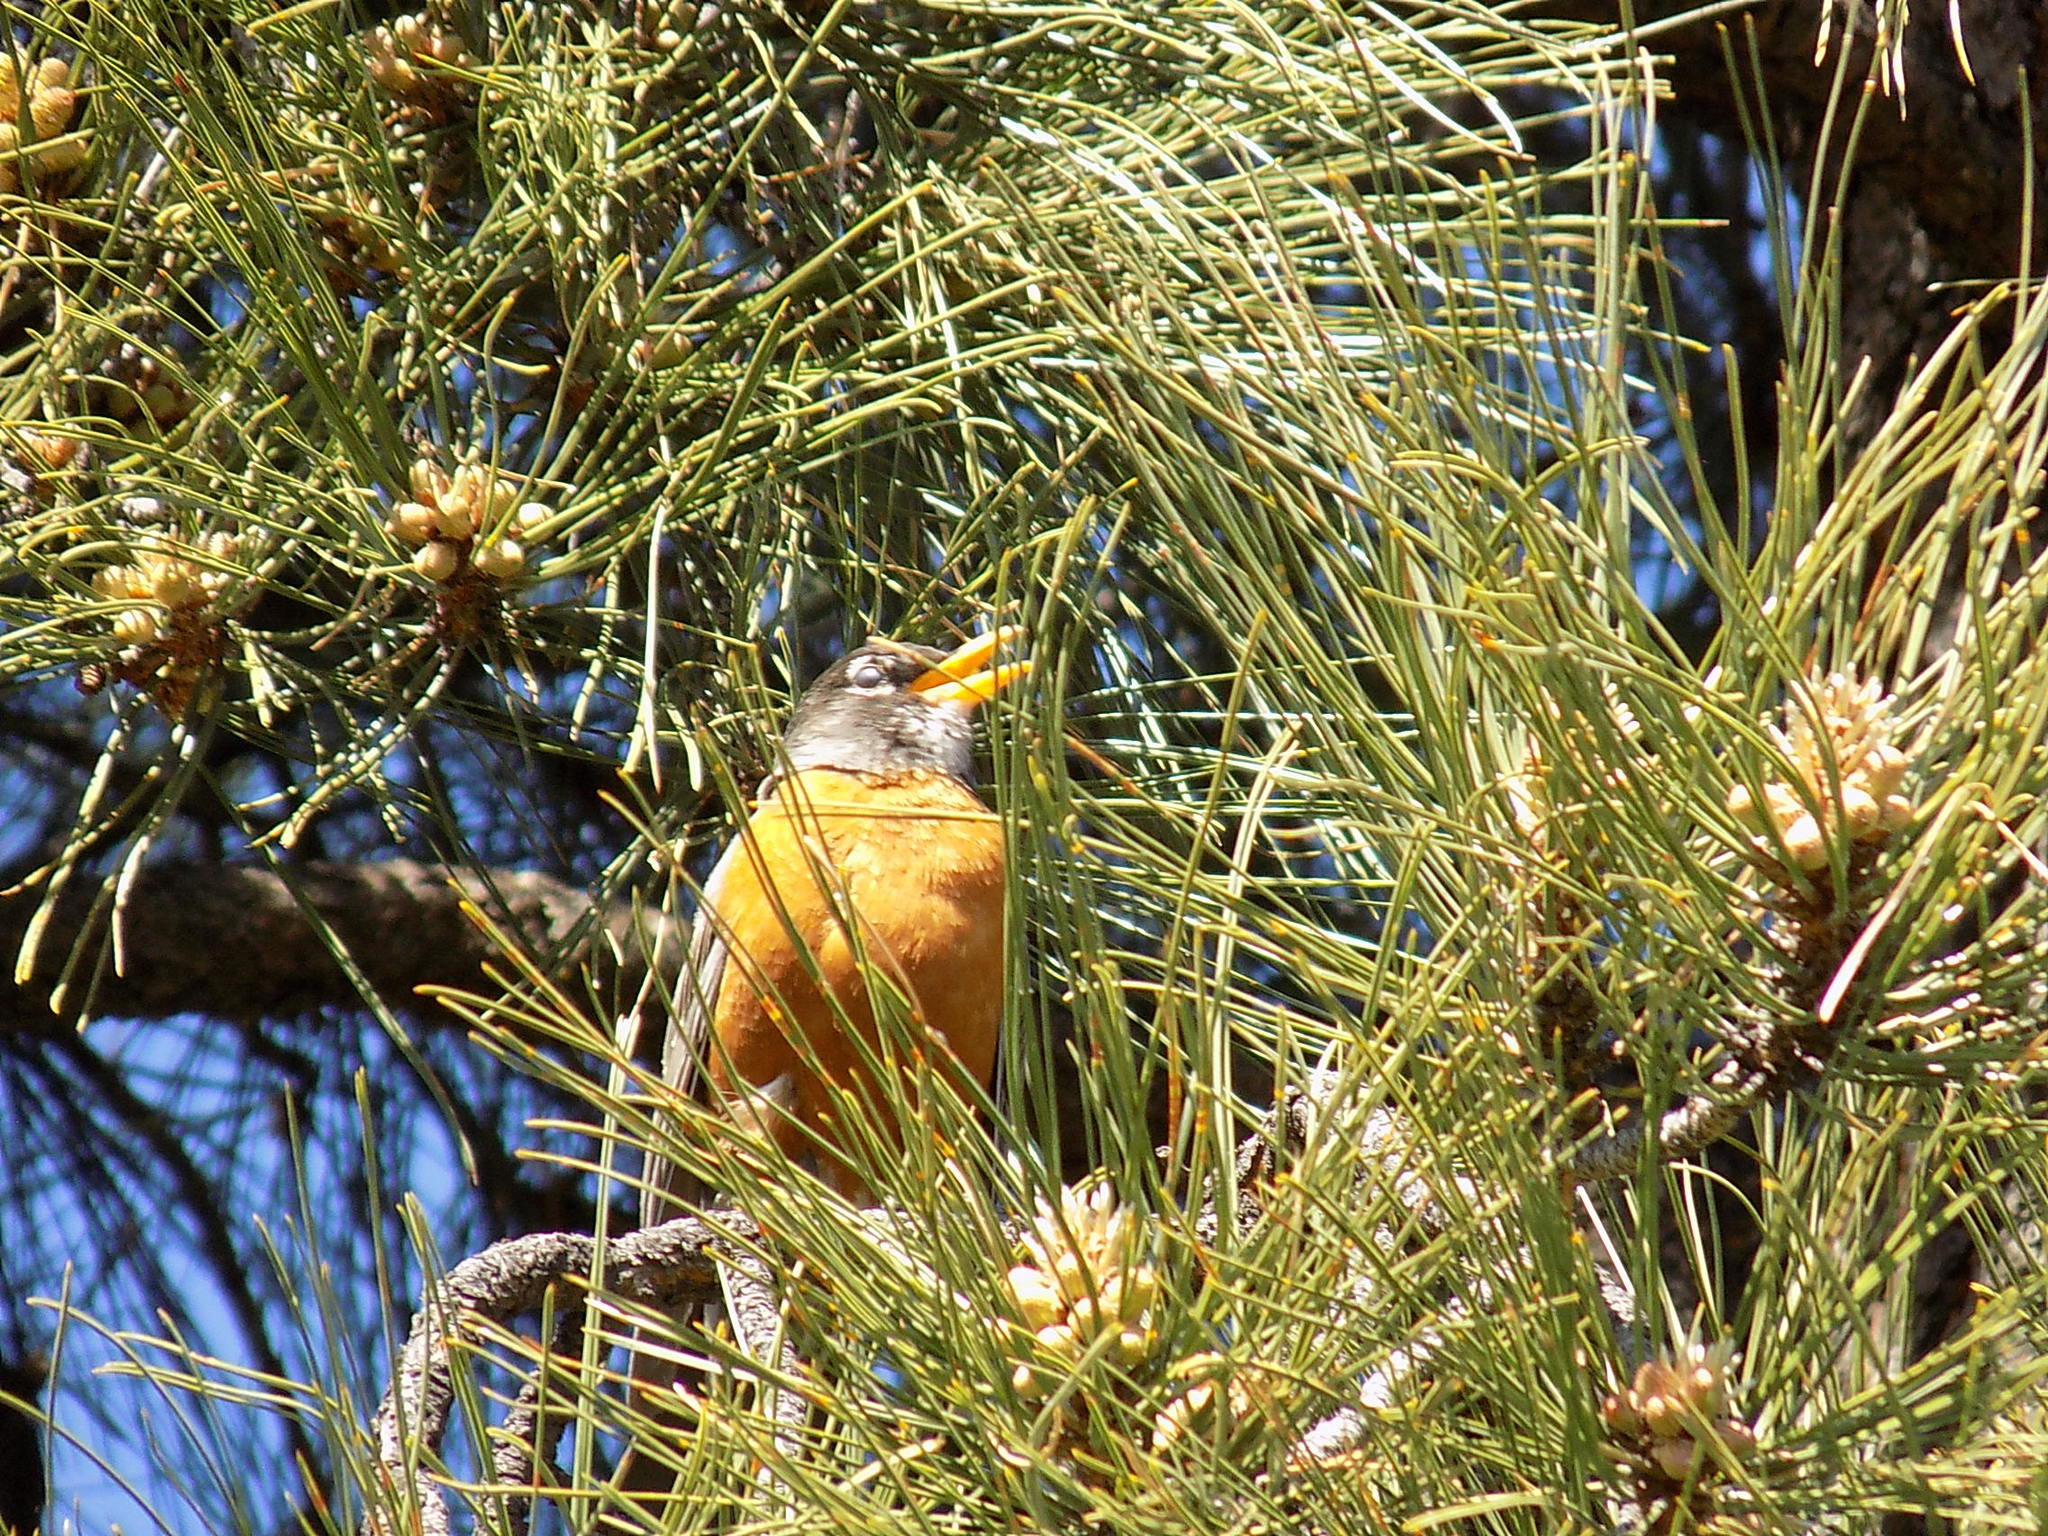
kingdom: Animalia
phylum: Chordata
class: Aves
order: Passeriformes
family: Turdidae
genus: Turdus
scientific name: Turdus migratorius
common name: American robin
